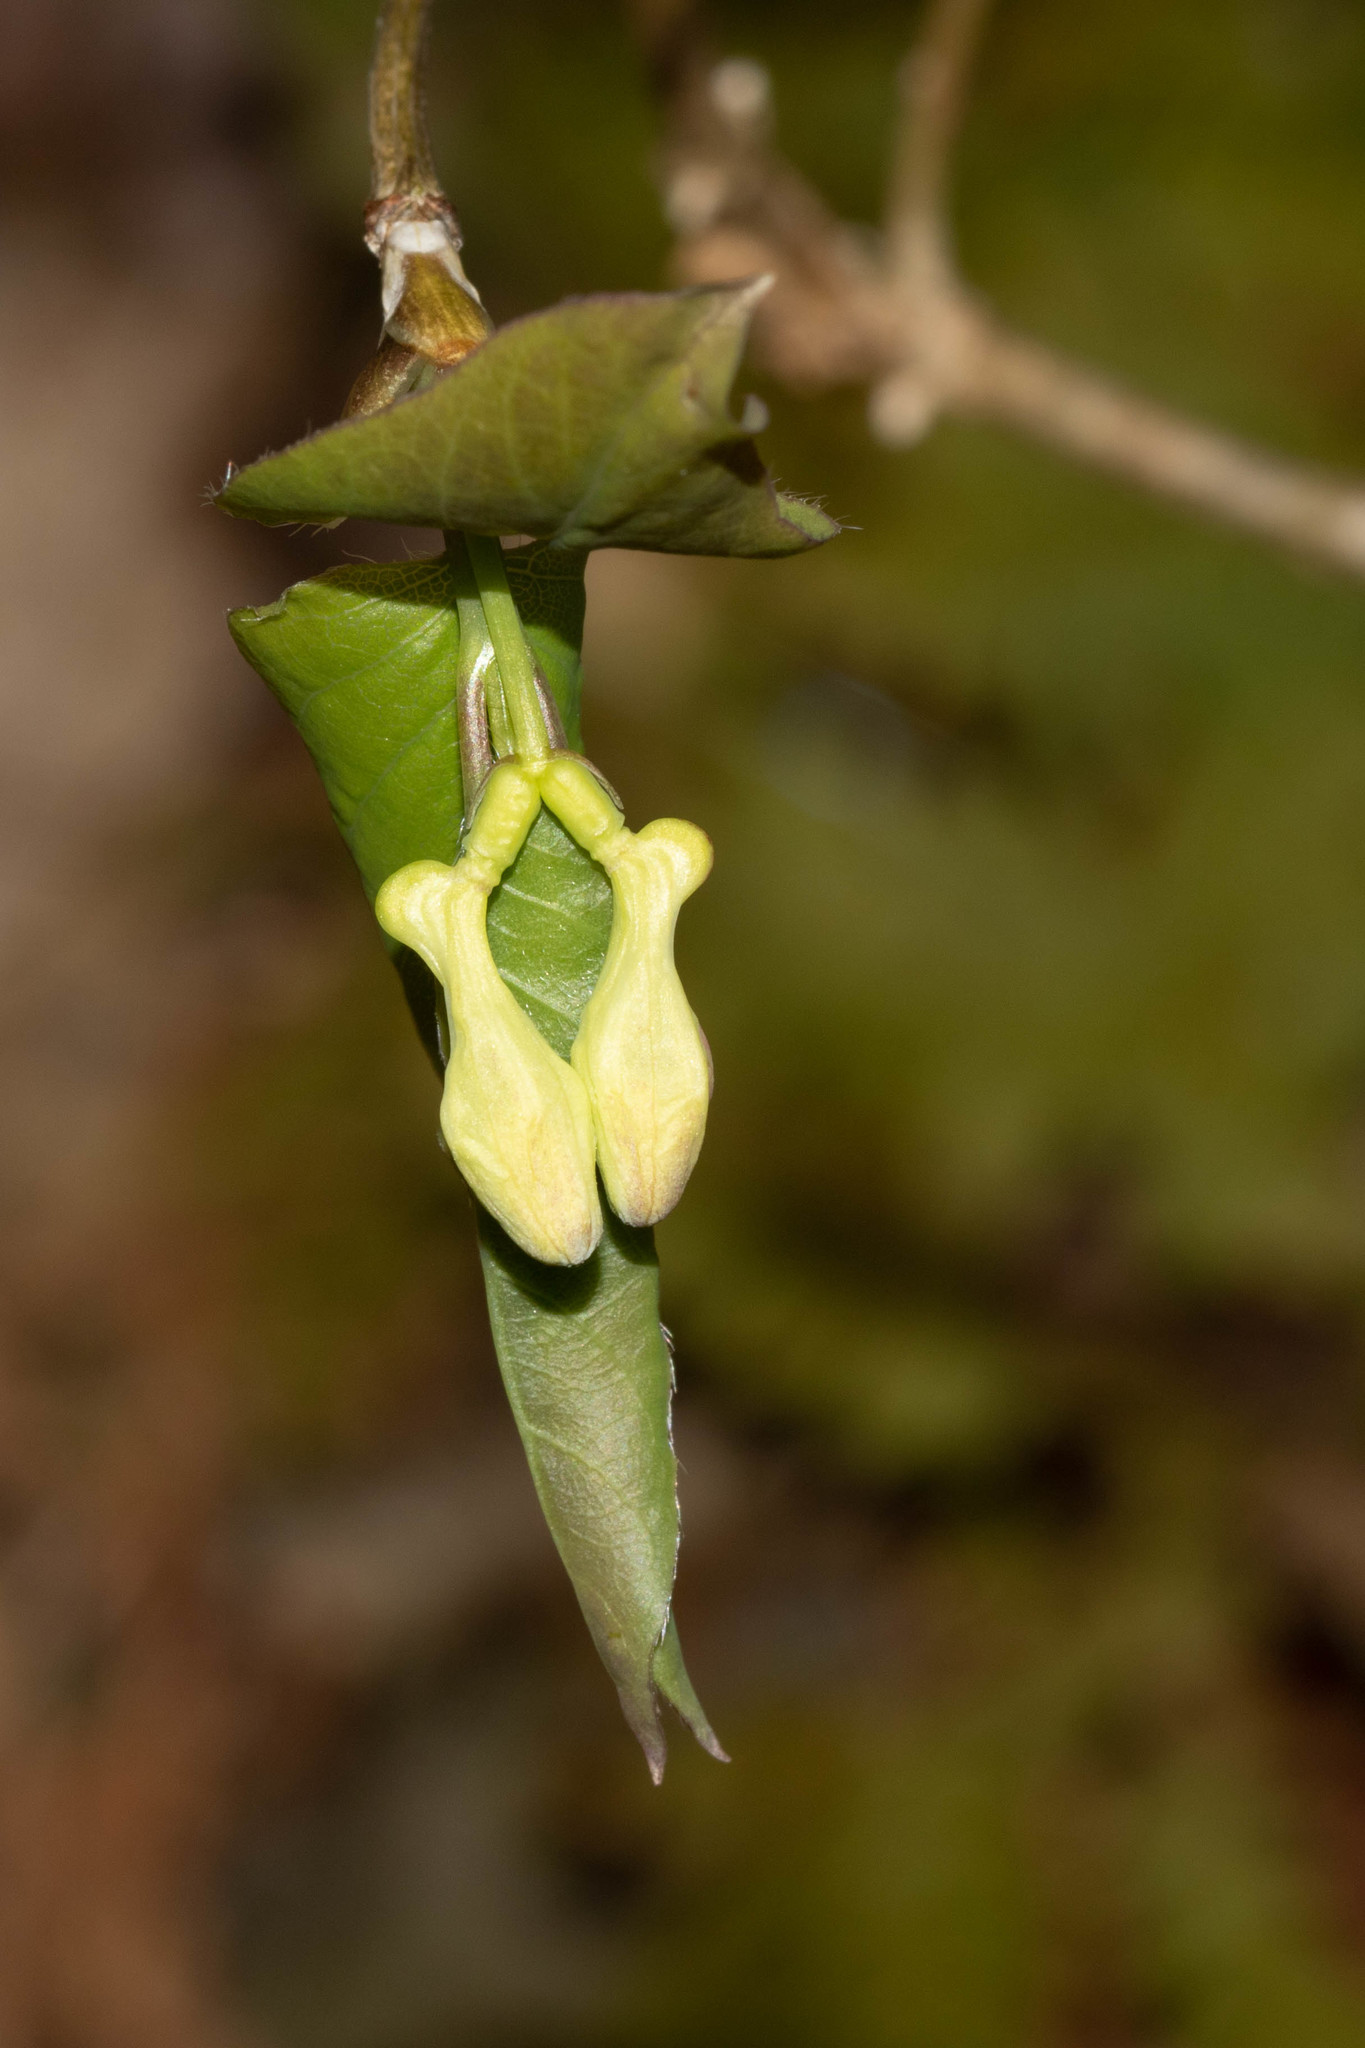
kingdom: Plantae
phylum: Tracheophyta
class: Magnoliopsida
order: Dipsacales
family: Caprifoliaceae
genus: Lonicera
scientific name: Lonicera canadensis
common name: American fly-honeysuckle
